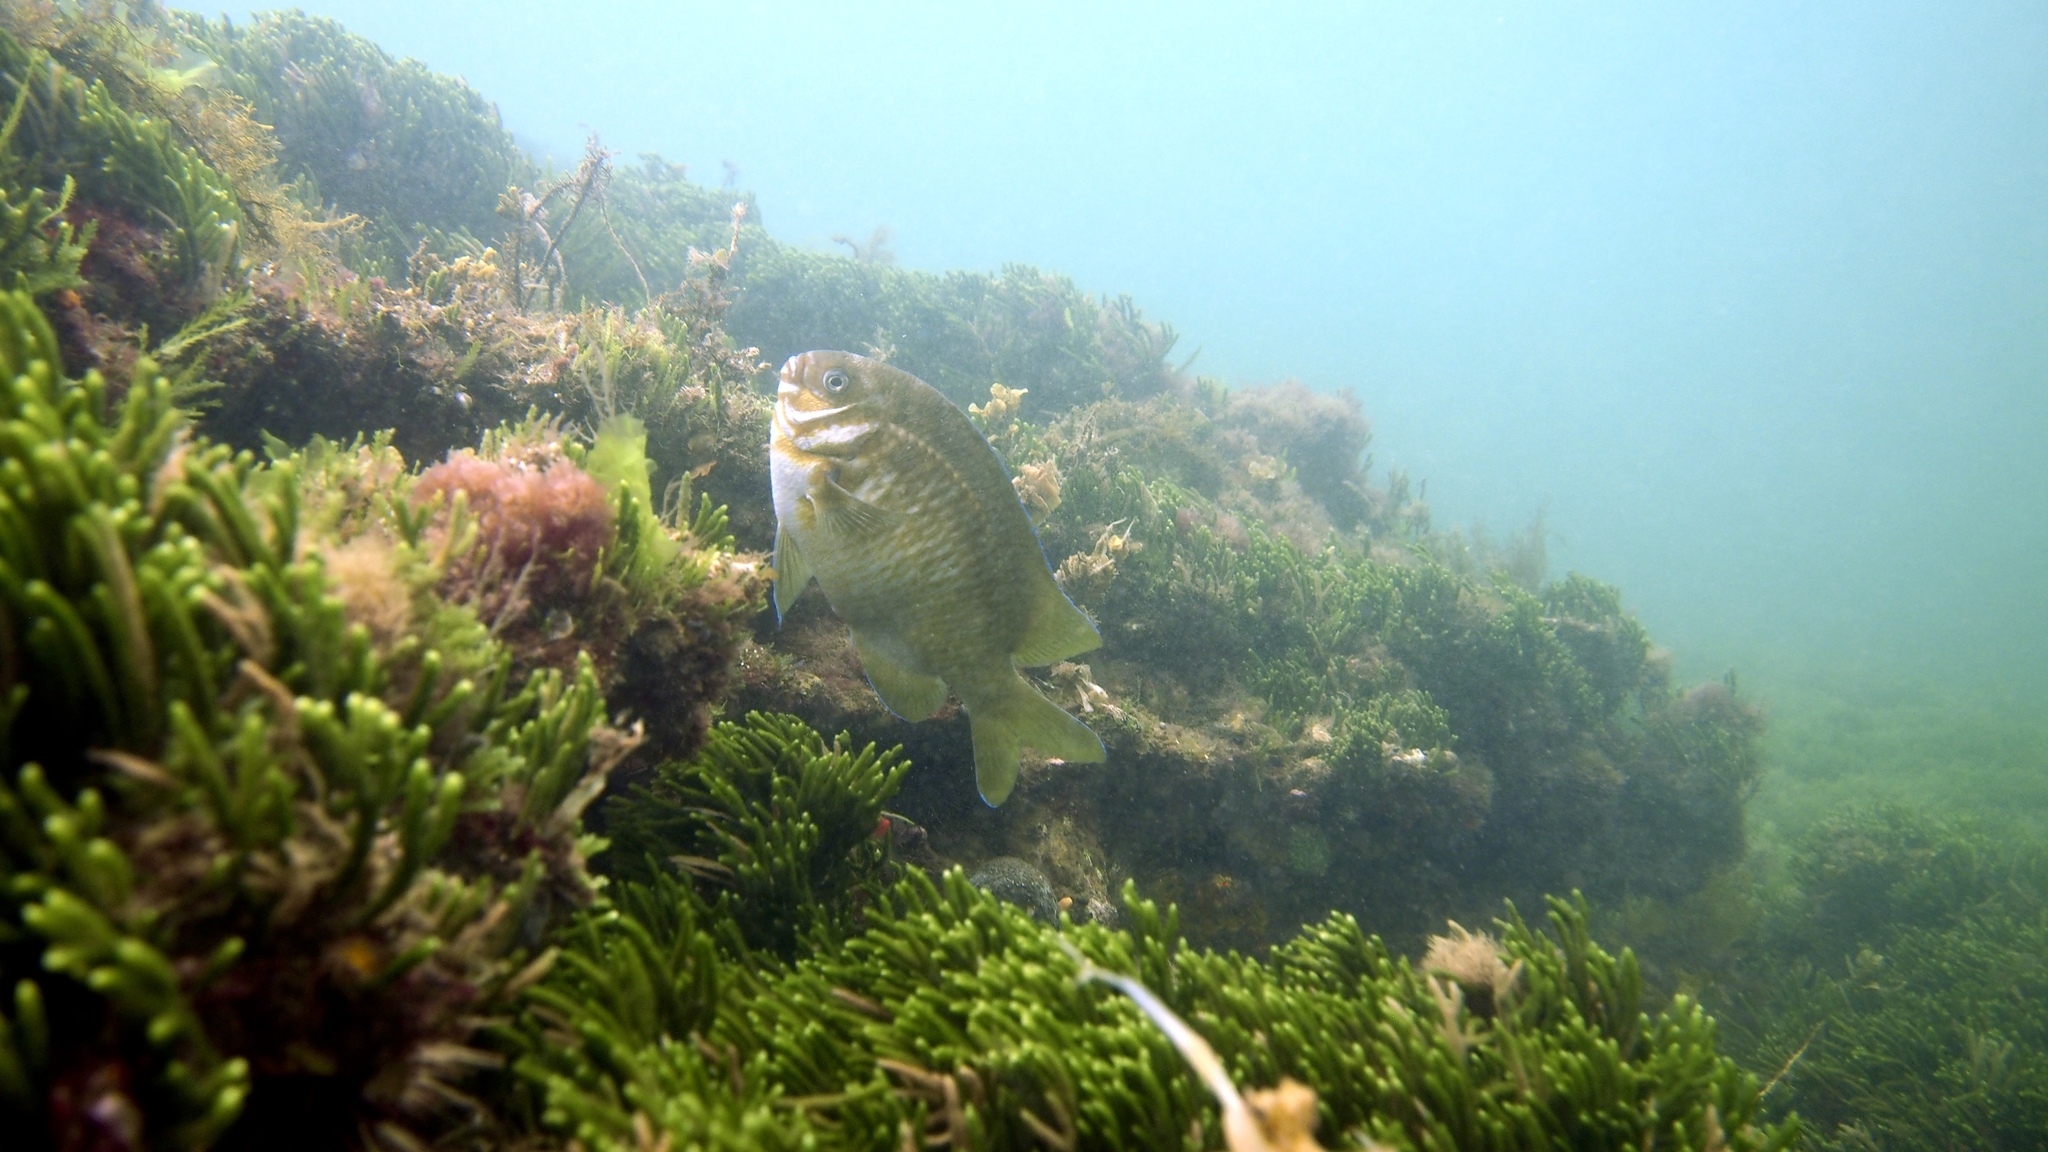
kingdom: Animalia
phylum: Chordata
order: Perciformes
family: Pomacentridae
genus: Parma
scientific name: Parma victoriae
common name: Rock perch
